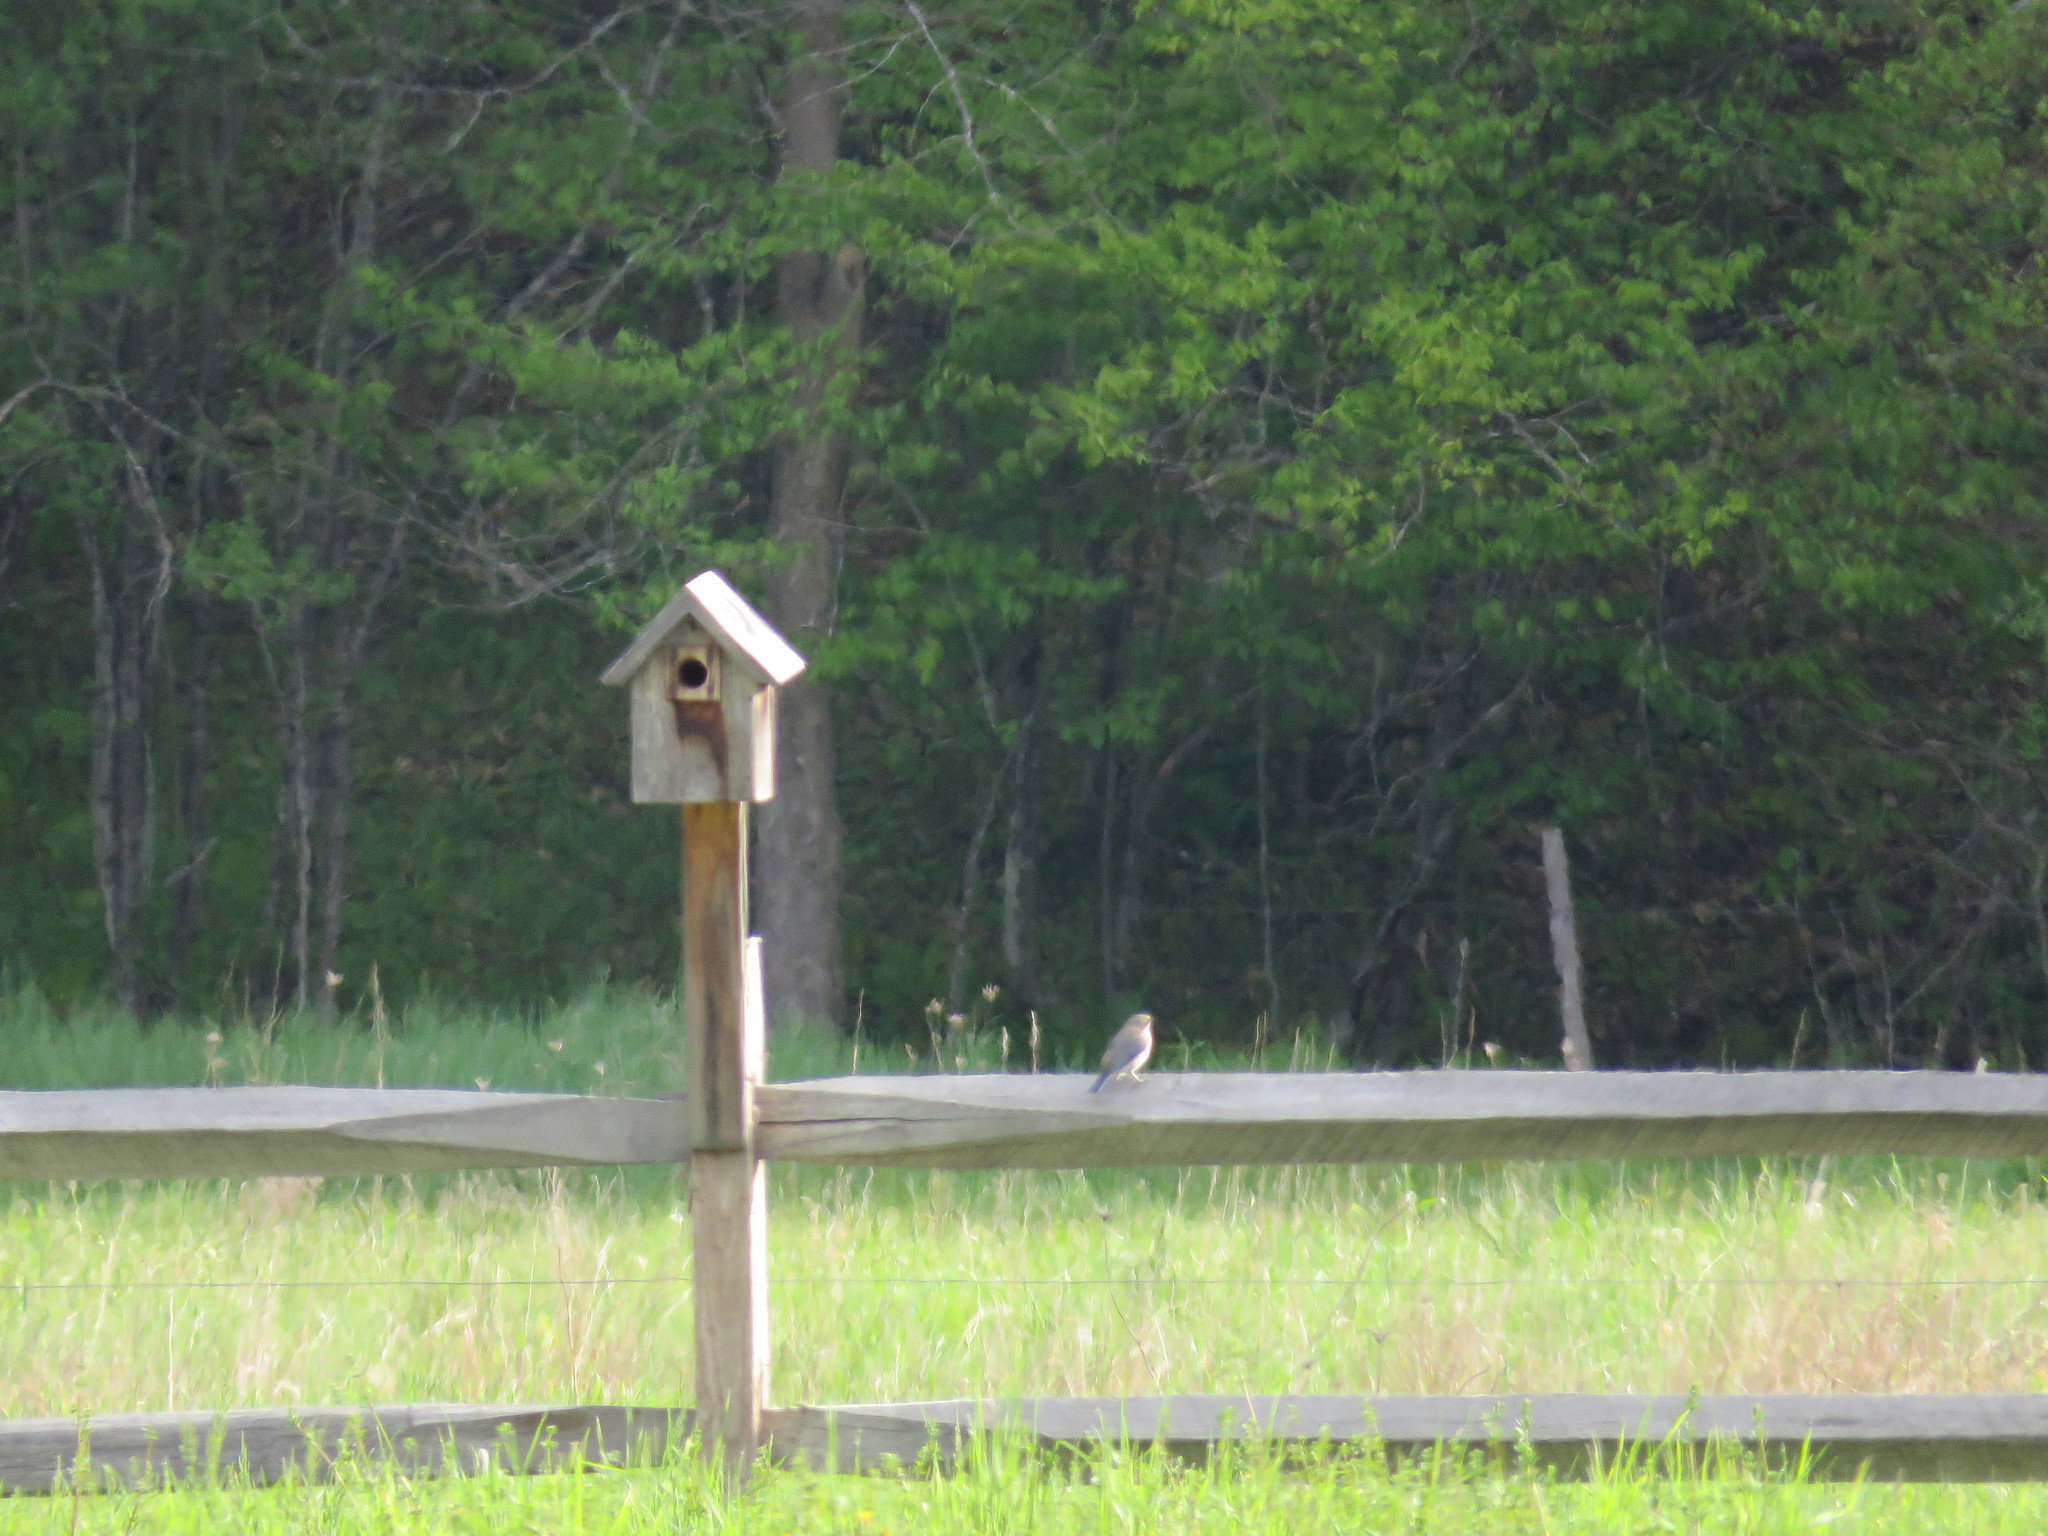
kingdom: Animalia
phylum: Chordata
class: Aves
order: Passeriformes
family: Turdidae
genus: Sialia
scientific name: Sialia sialis
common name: Eastern bluebird
